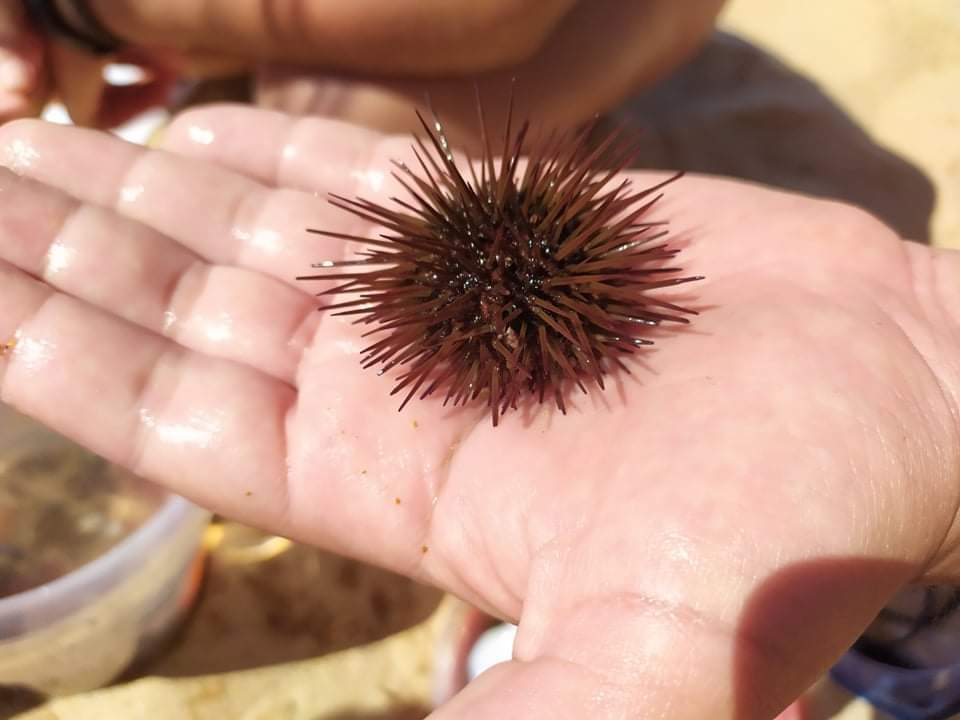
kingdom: Animalia
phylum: Echinodermata
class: Echinoidea
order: Camarodonta
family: Parechinidae
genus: Paracentrotus
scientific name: Paracentrotus lividus
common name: Purple sea urchin
